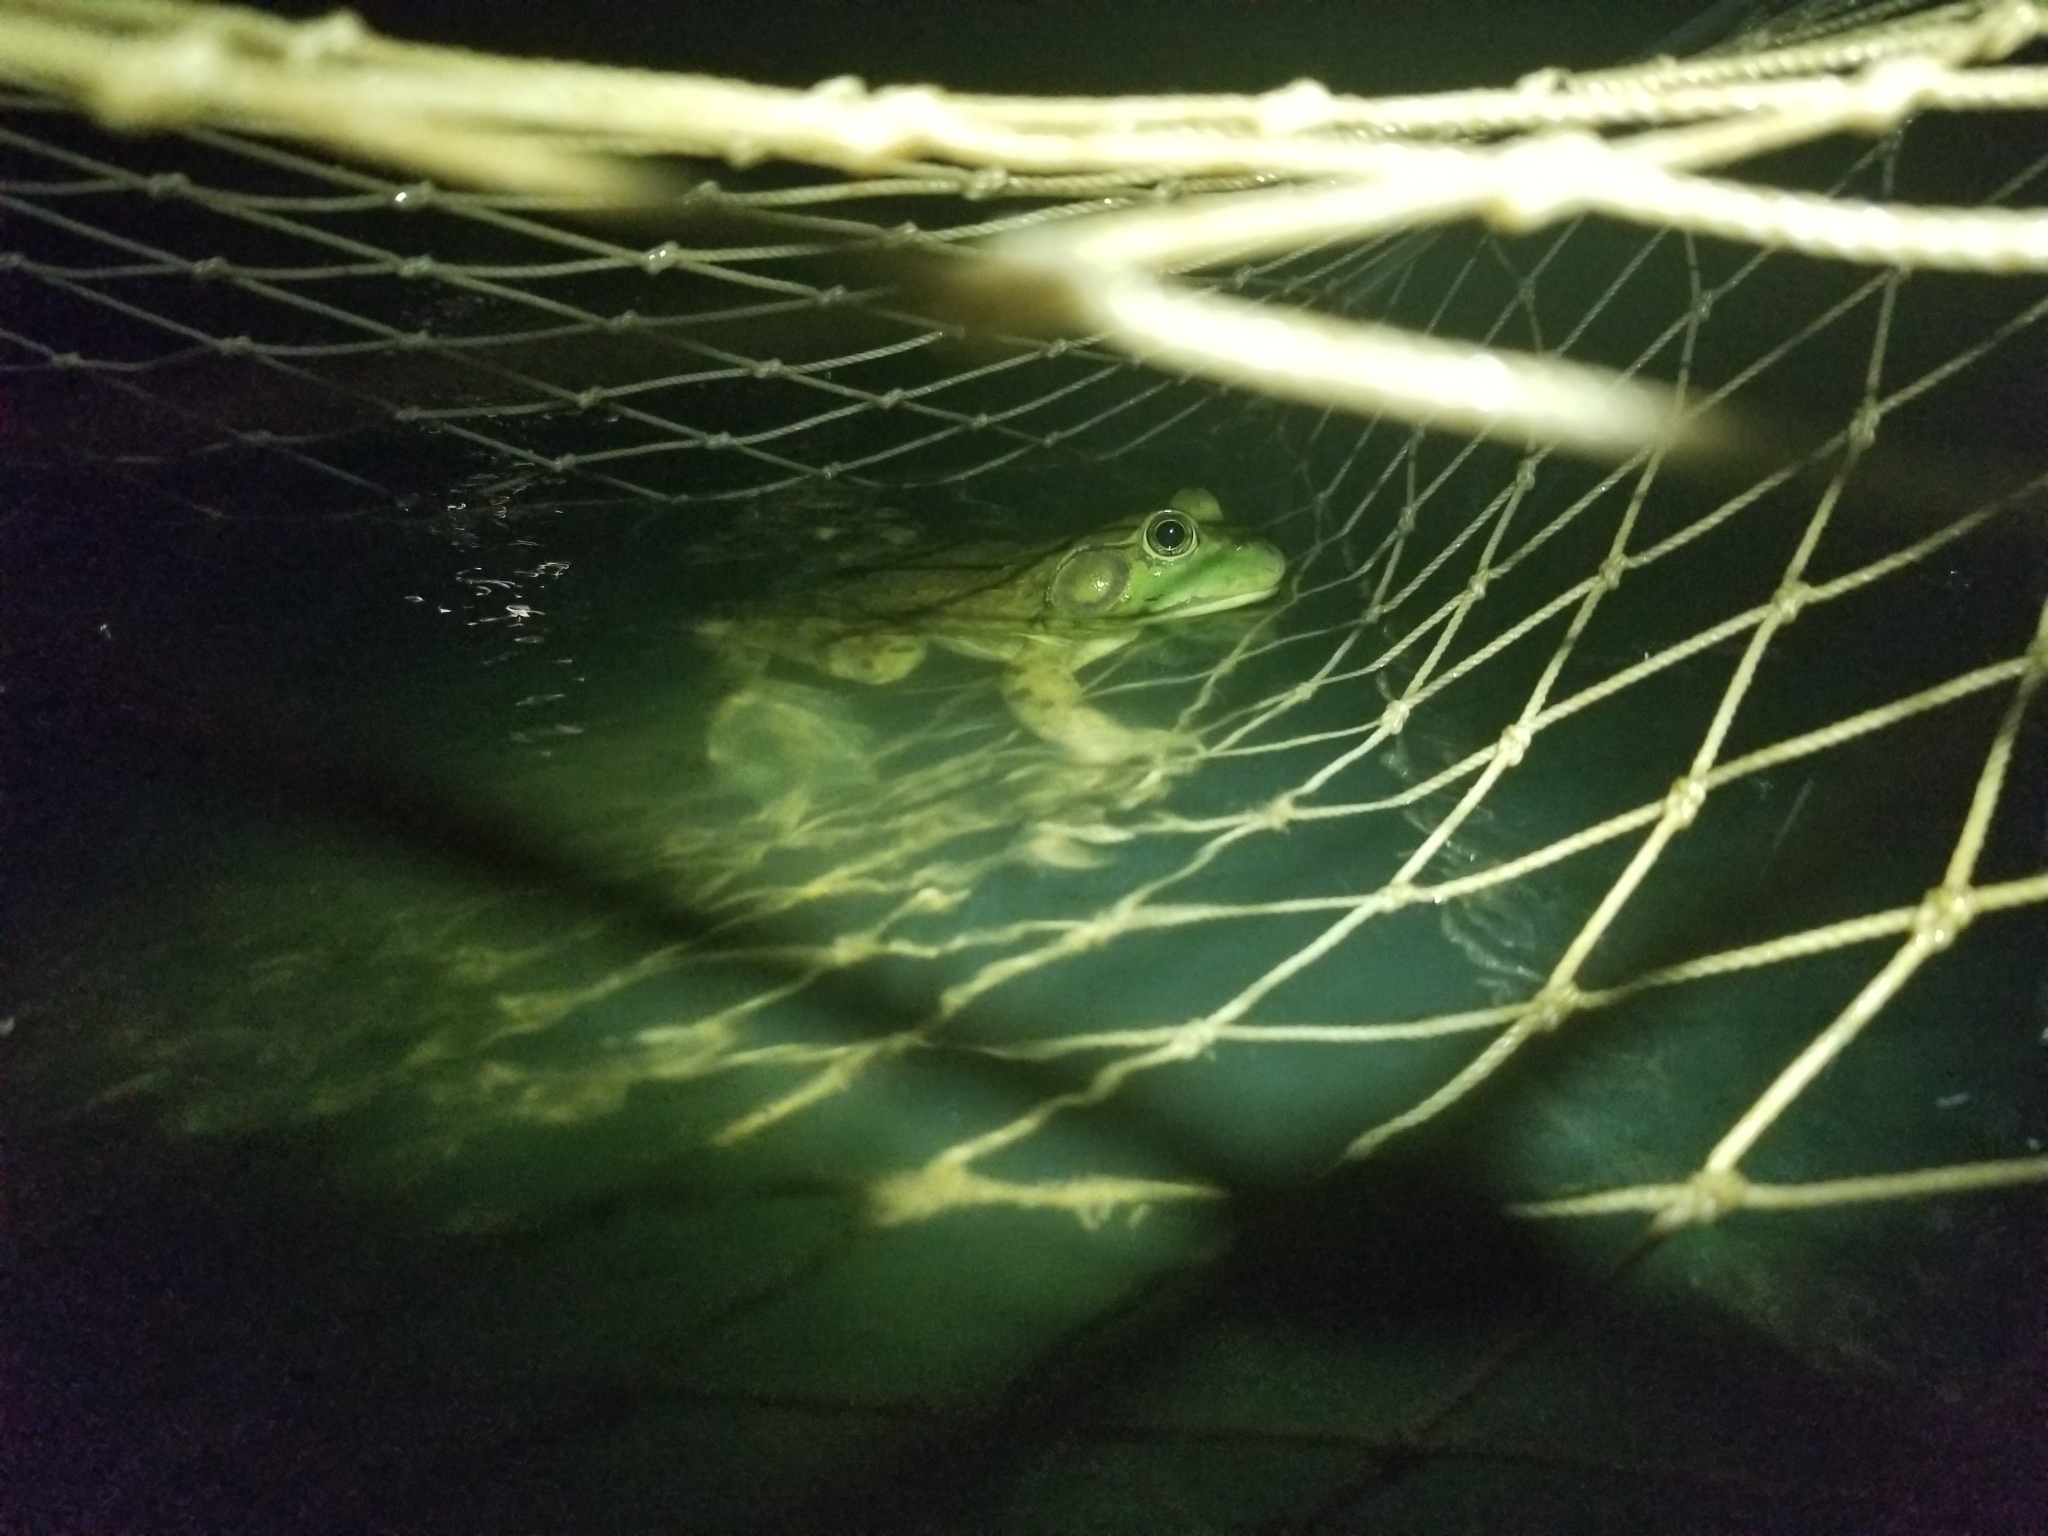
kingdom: Animalia
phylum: Chordata
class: Amphibia
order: Anura
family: Ranidae
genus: Lithobates
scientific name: Lithobates catesbeianus
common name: American bullfrog
